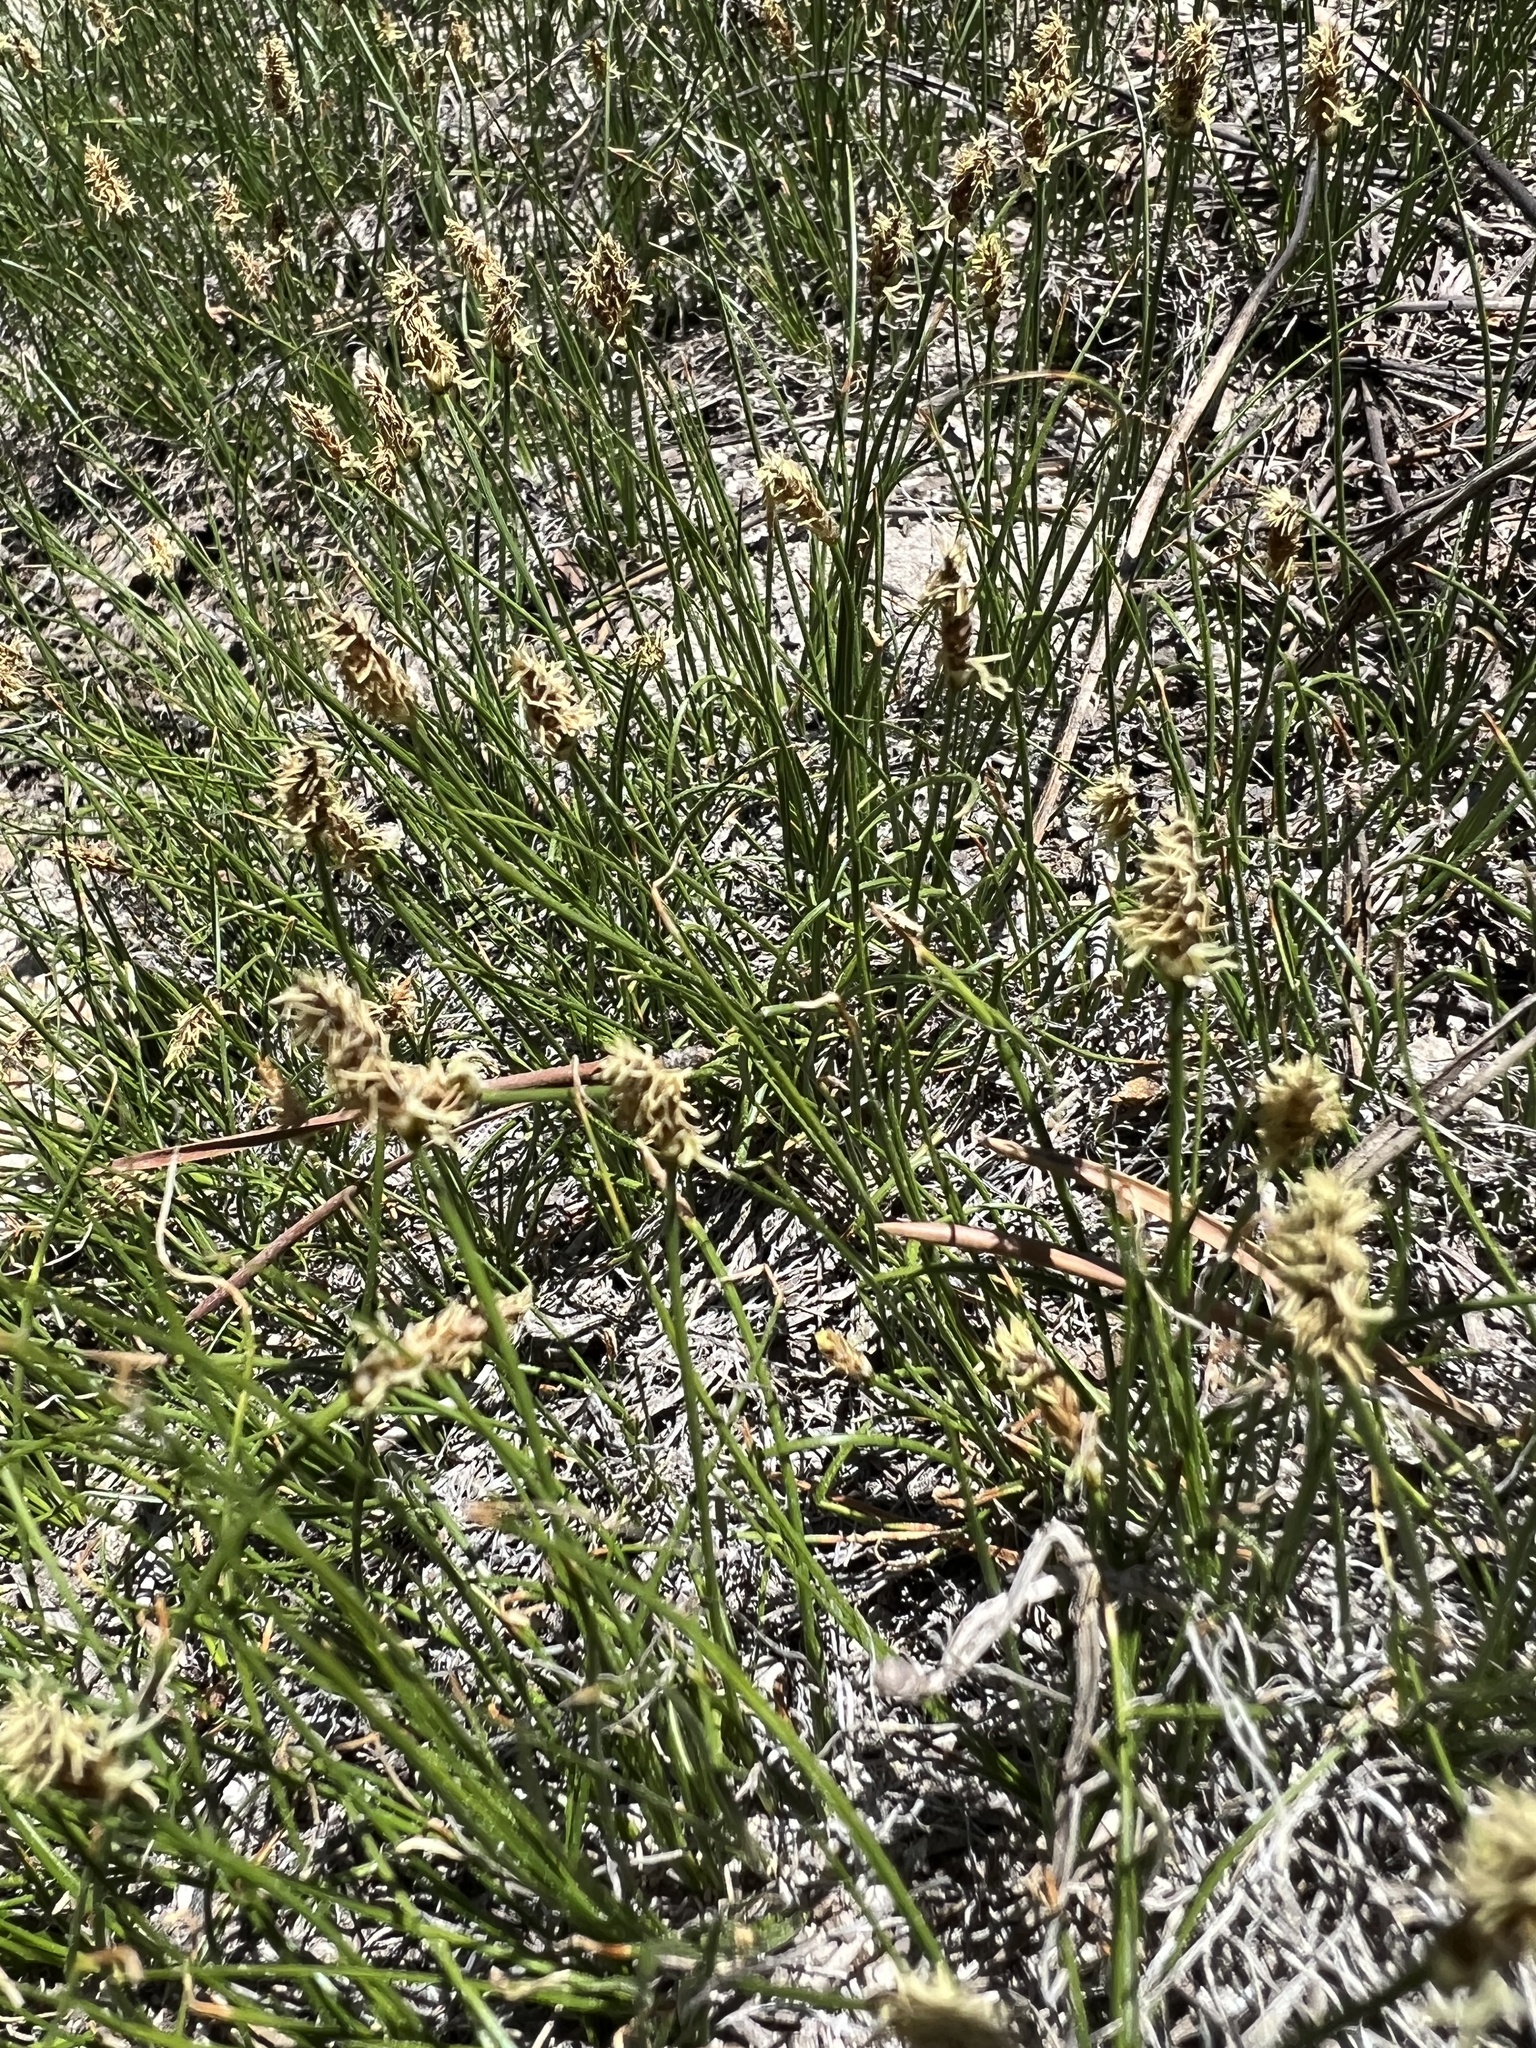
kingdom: Plantae
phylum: Tracheophyta
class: Liliopsida
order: Poales
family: Cyperaceae
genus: Carex
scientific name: Carex filifolia
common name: Threadleaf sedge
